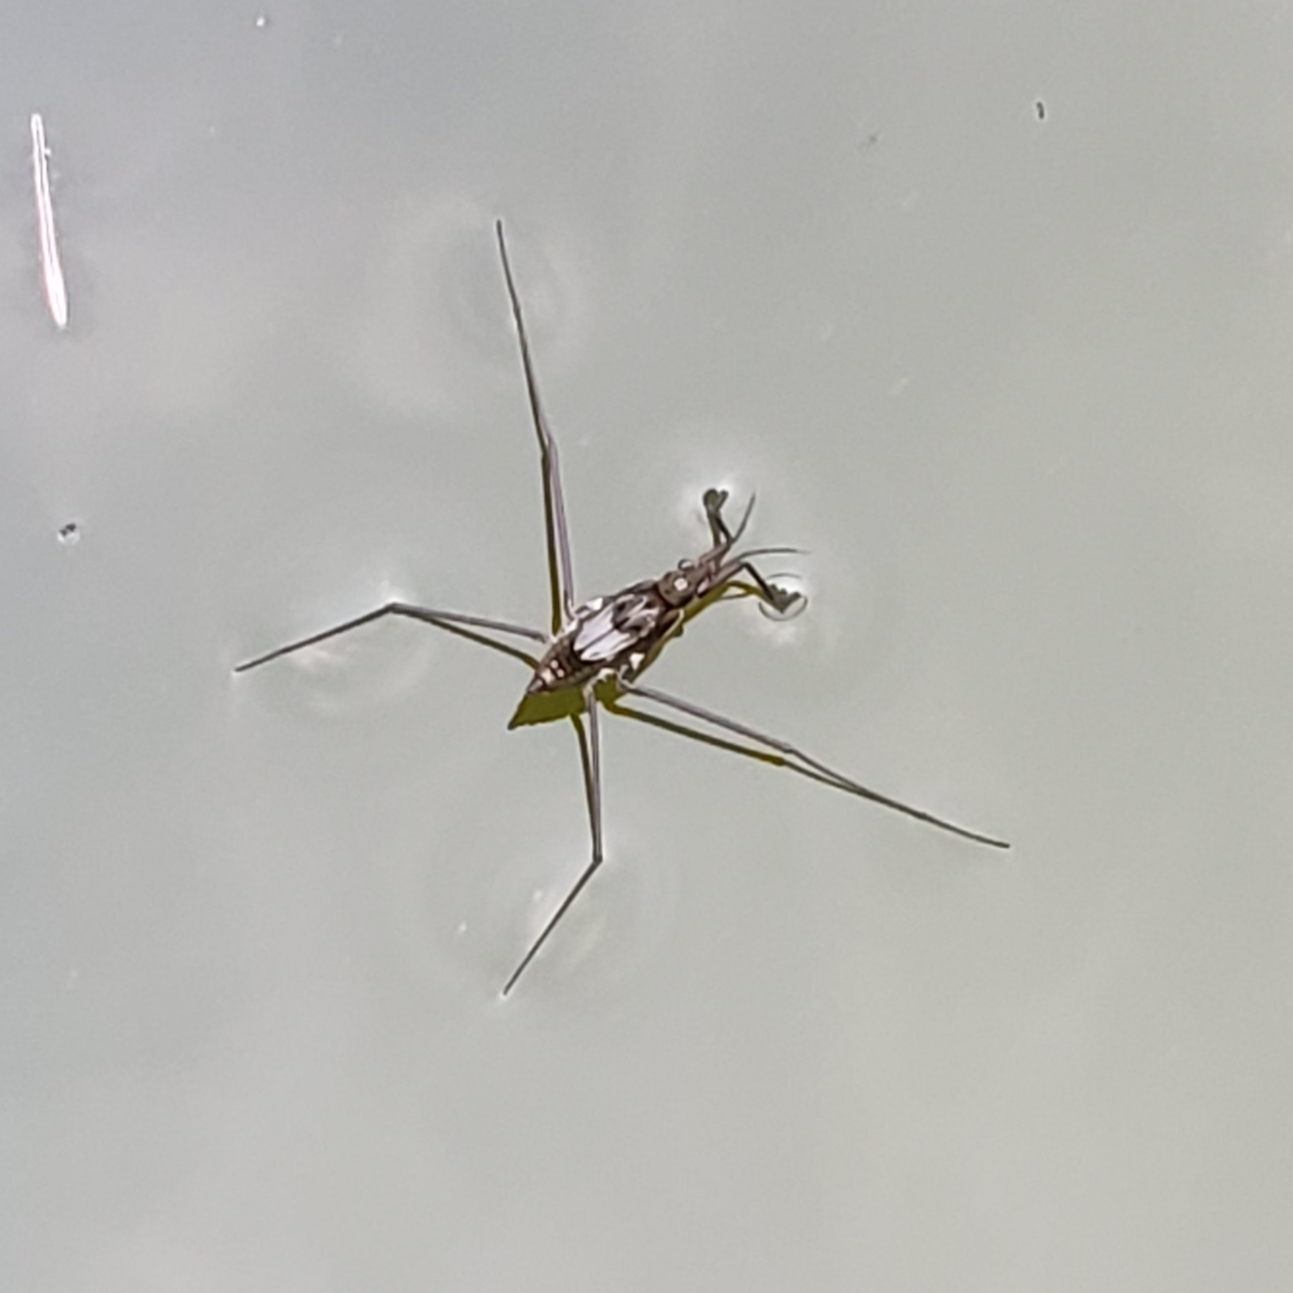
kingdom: Animalia
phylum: Arthropoda
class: Insecta
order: Hemiptera
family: Gerridae
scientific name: Gerridae
